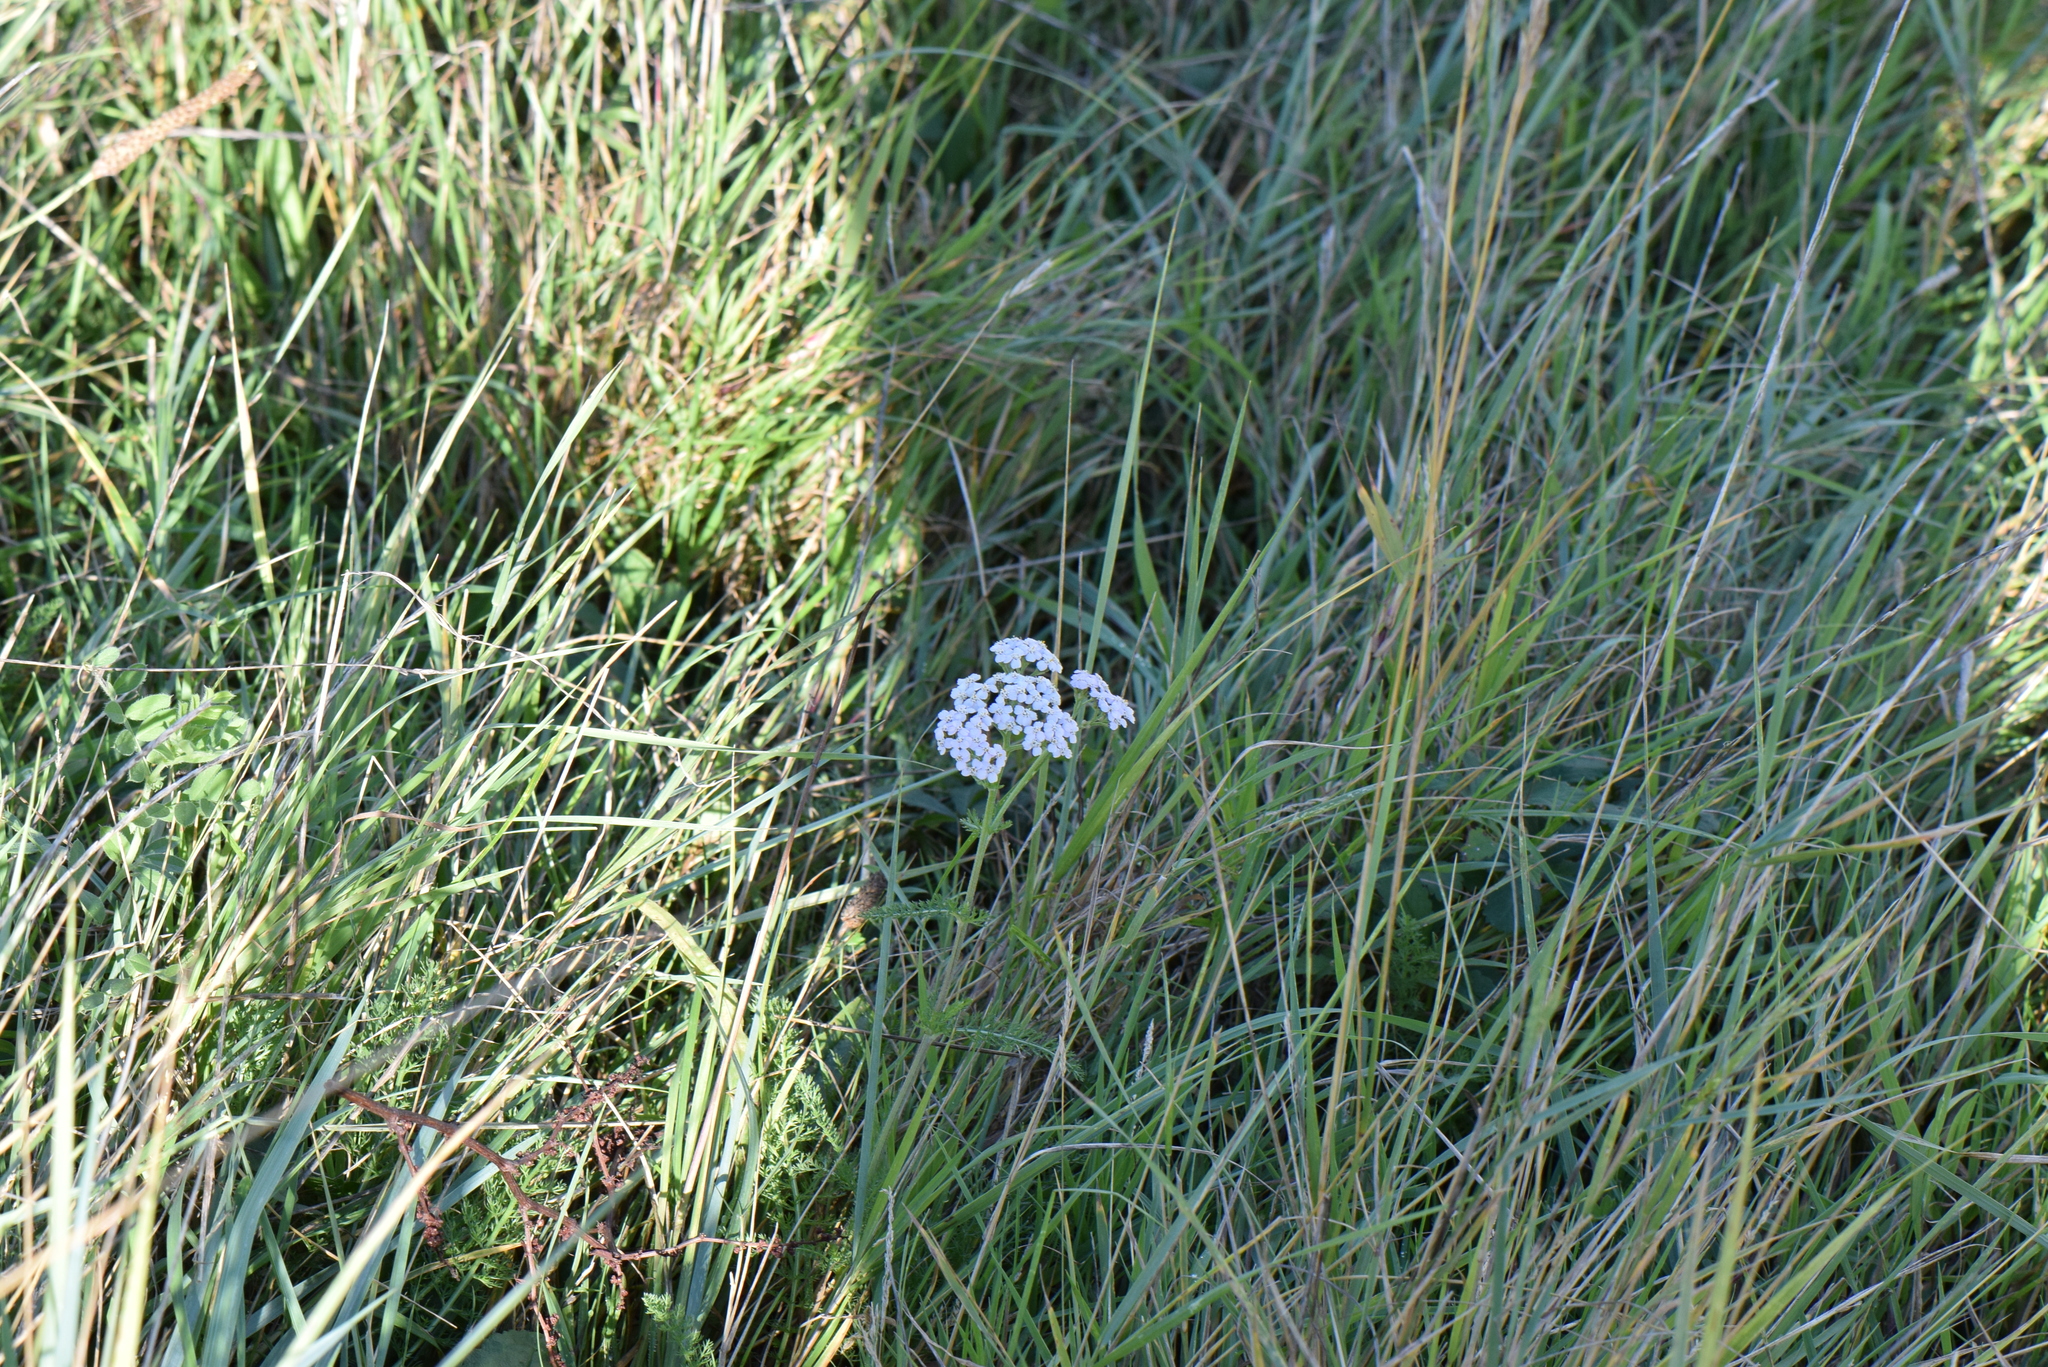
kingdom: Plantae
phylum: Tracheophyta
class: Magnoliopsida
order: Asterales
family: Asteraceae
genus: Achillea
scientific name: Achillea millefolium
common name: Yarrow
